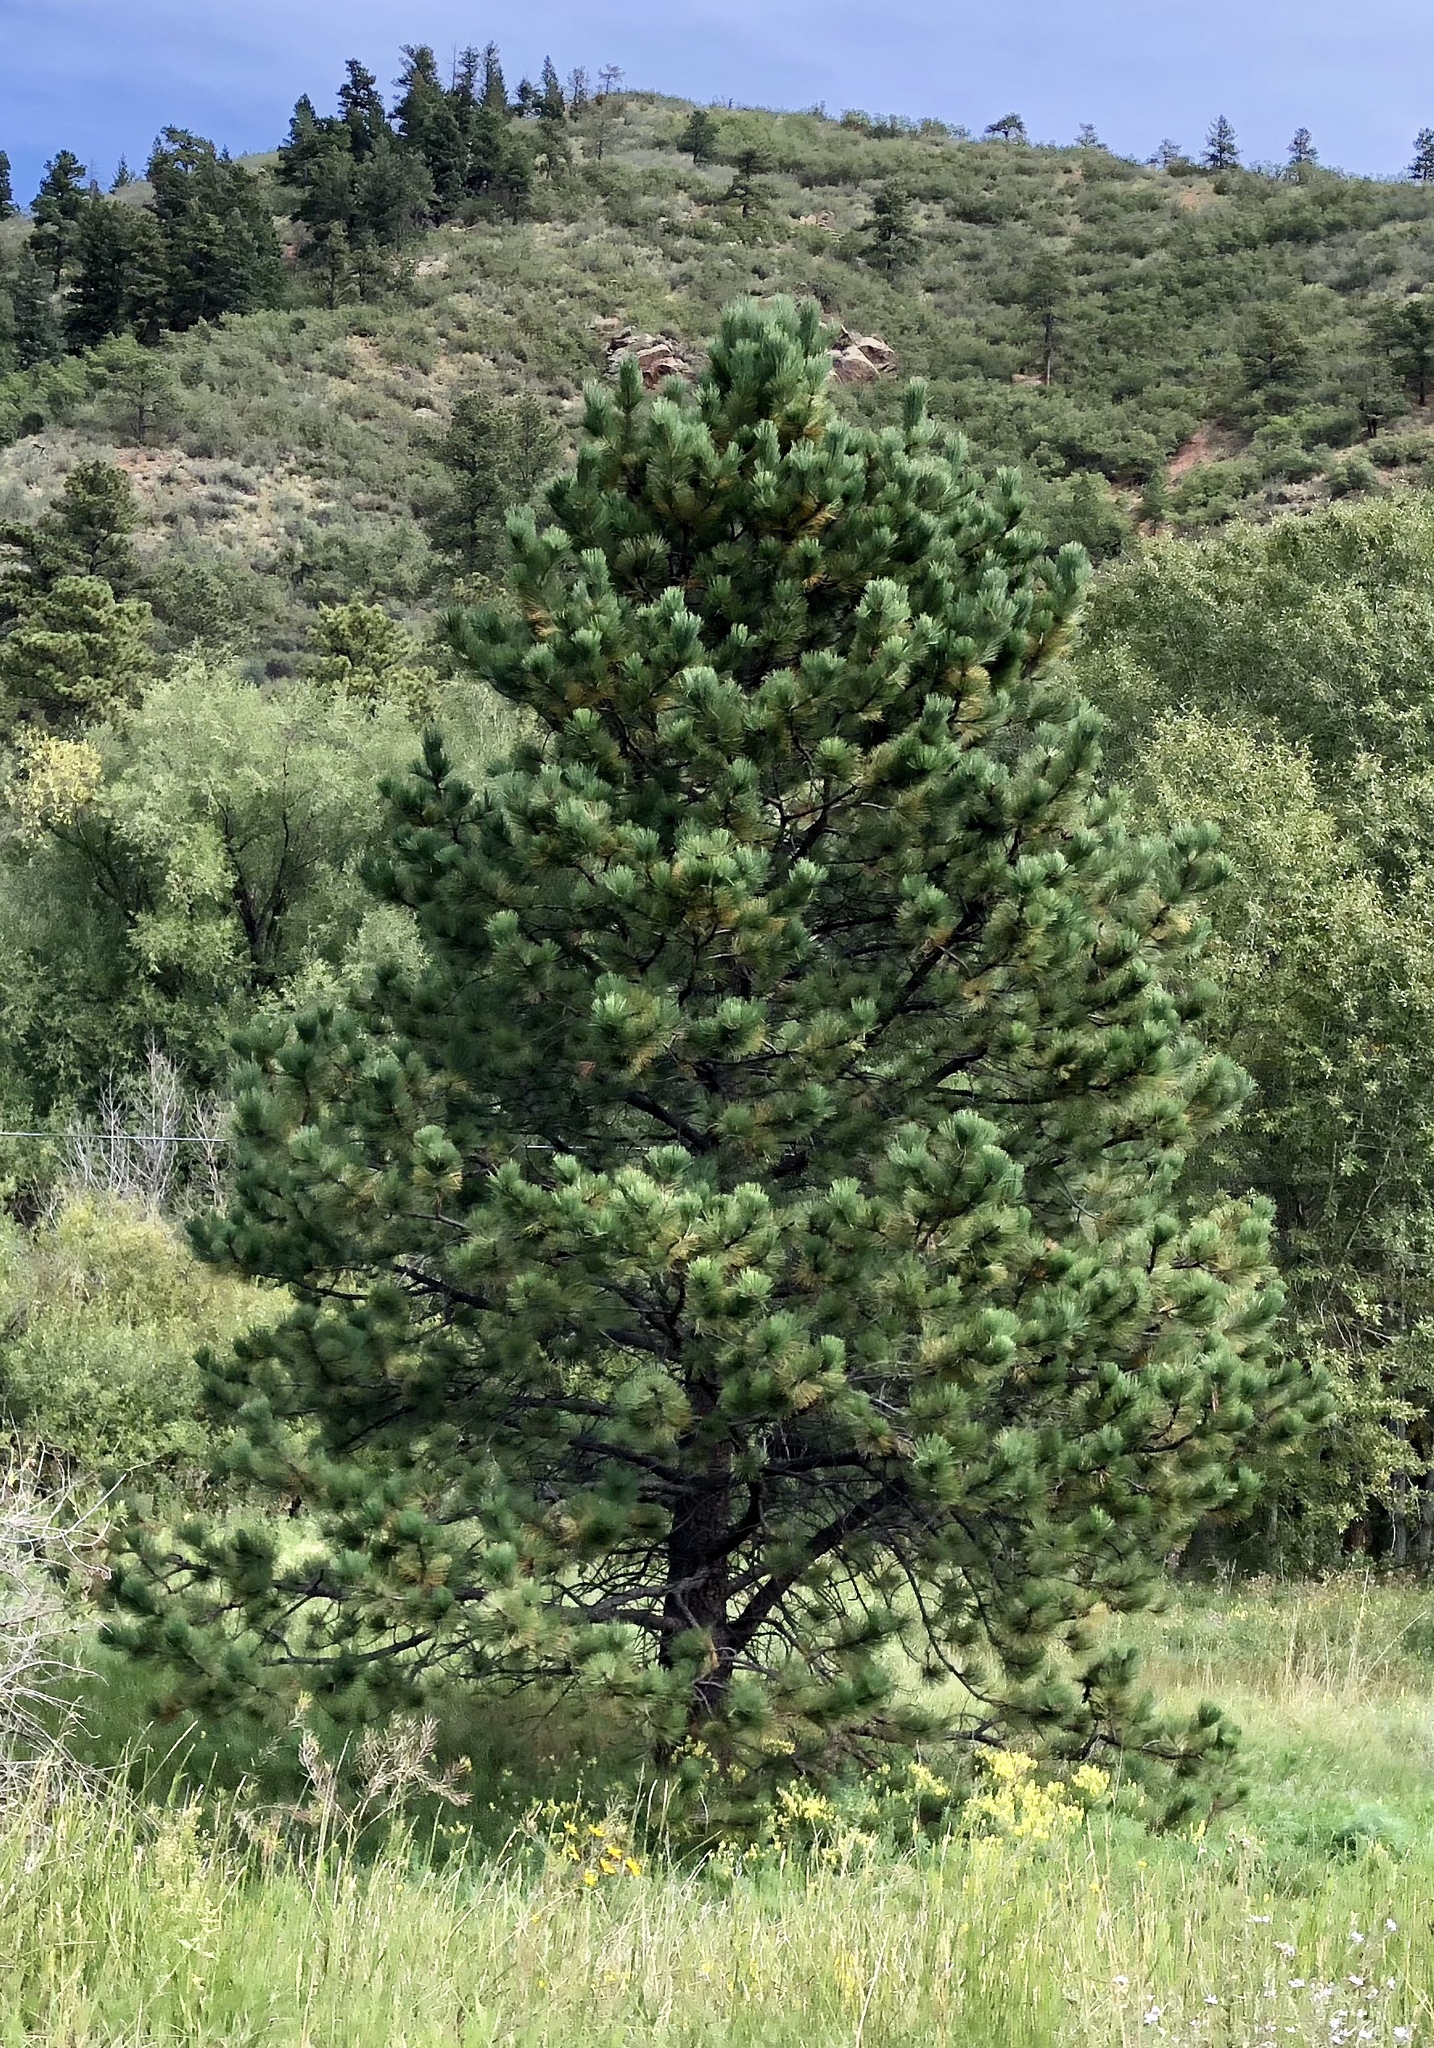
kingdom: Plantae
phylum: Tracheophyta
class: Pinopsida
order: Pinales
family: Pinaceae
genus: Pinus
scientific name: Pinus ponderosa
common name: Western yellow-pine
